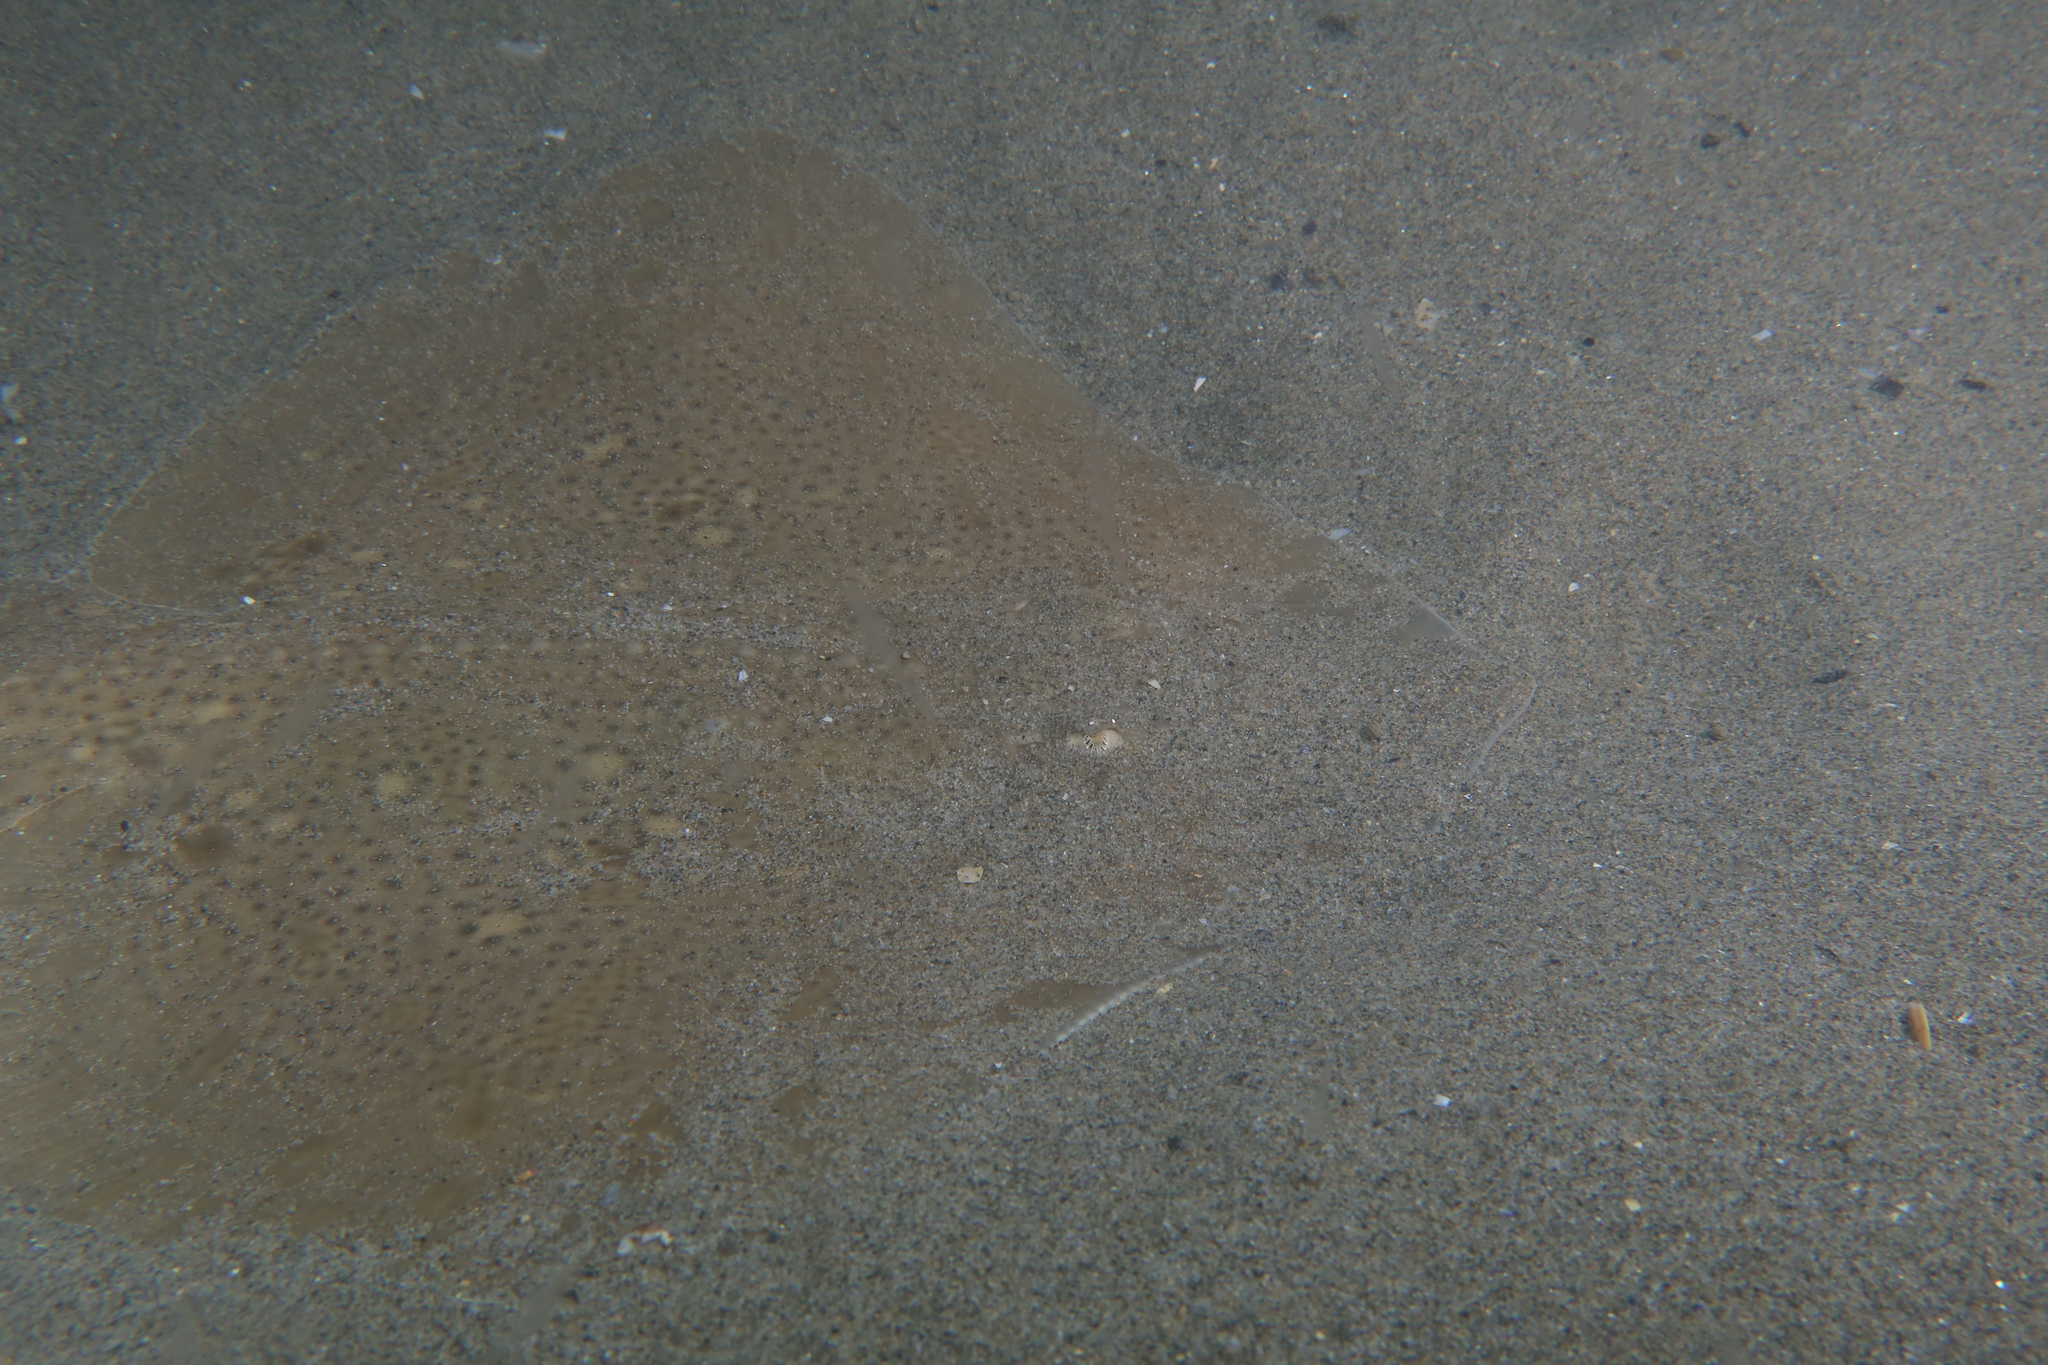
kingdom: Animalia
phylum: Chordata
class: Elasmobranchii
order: Rajiformes
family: Rajidae
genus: Raja
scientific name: Raja asterias
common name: Starry ray
